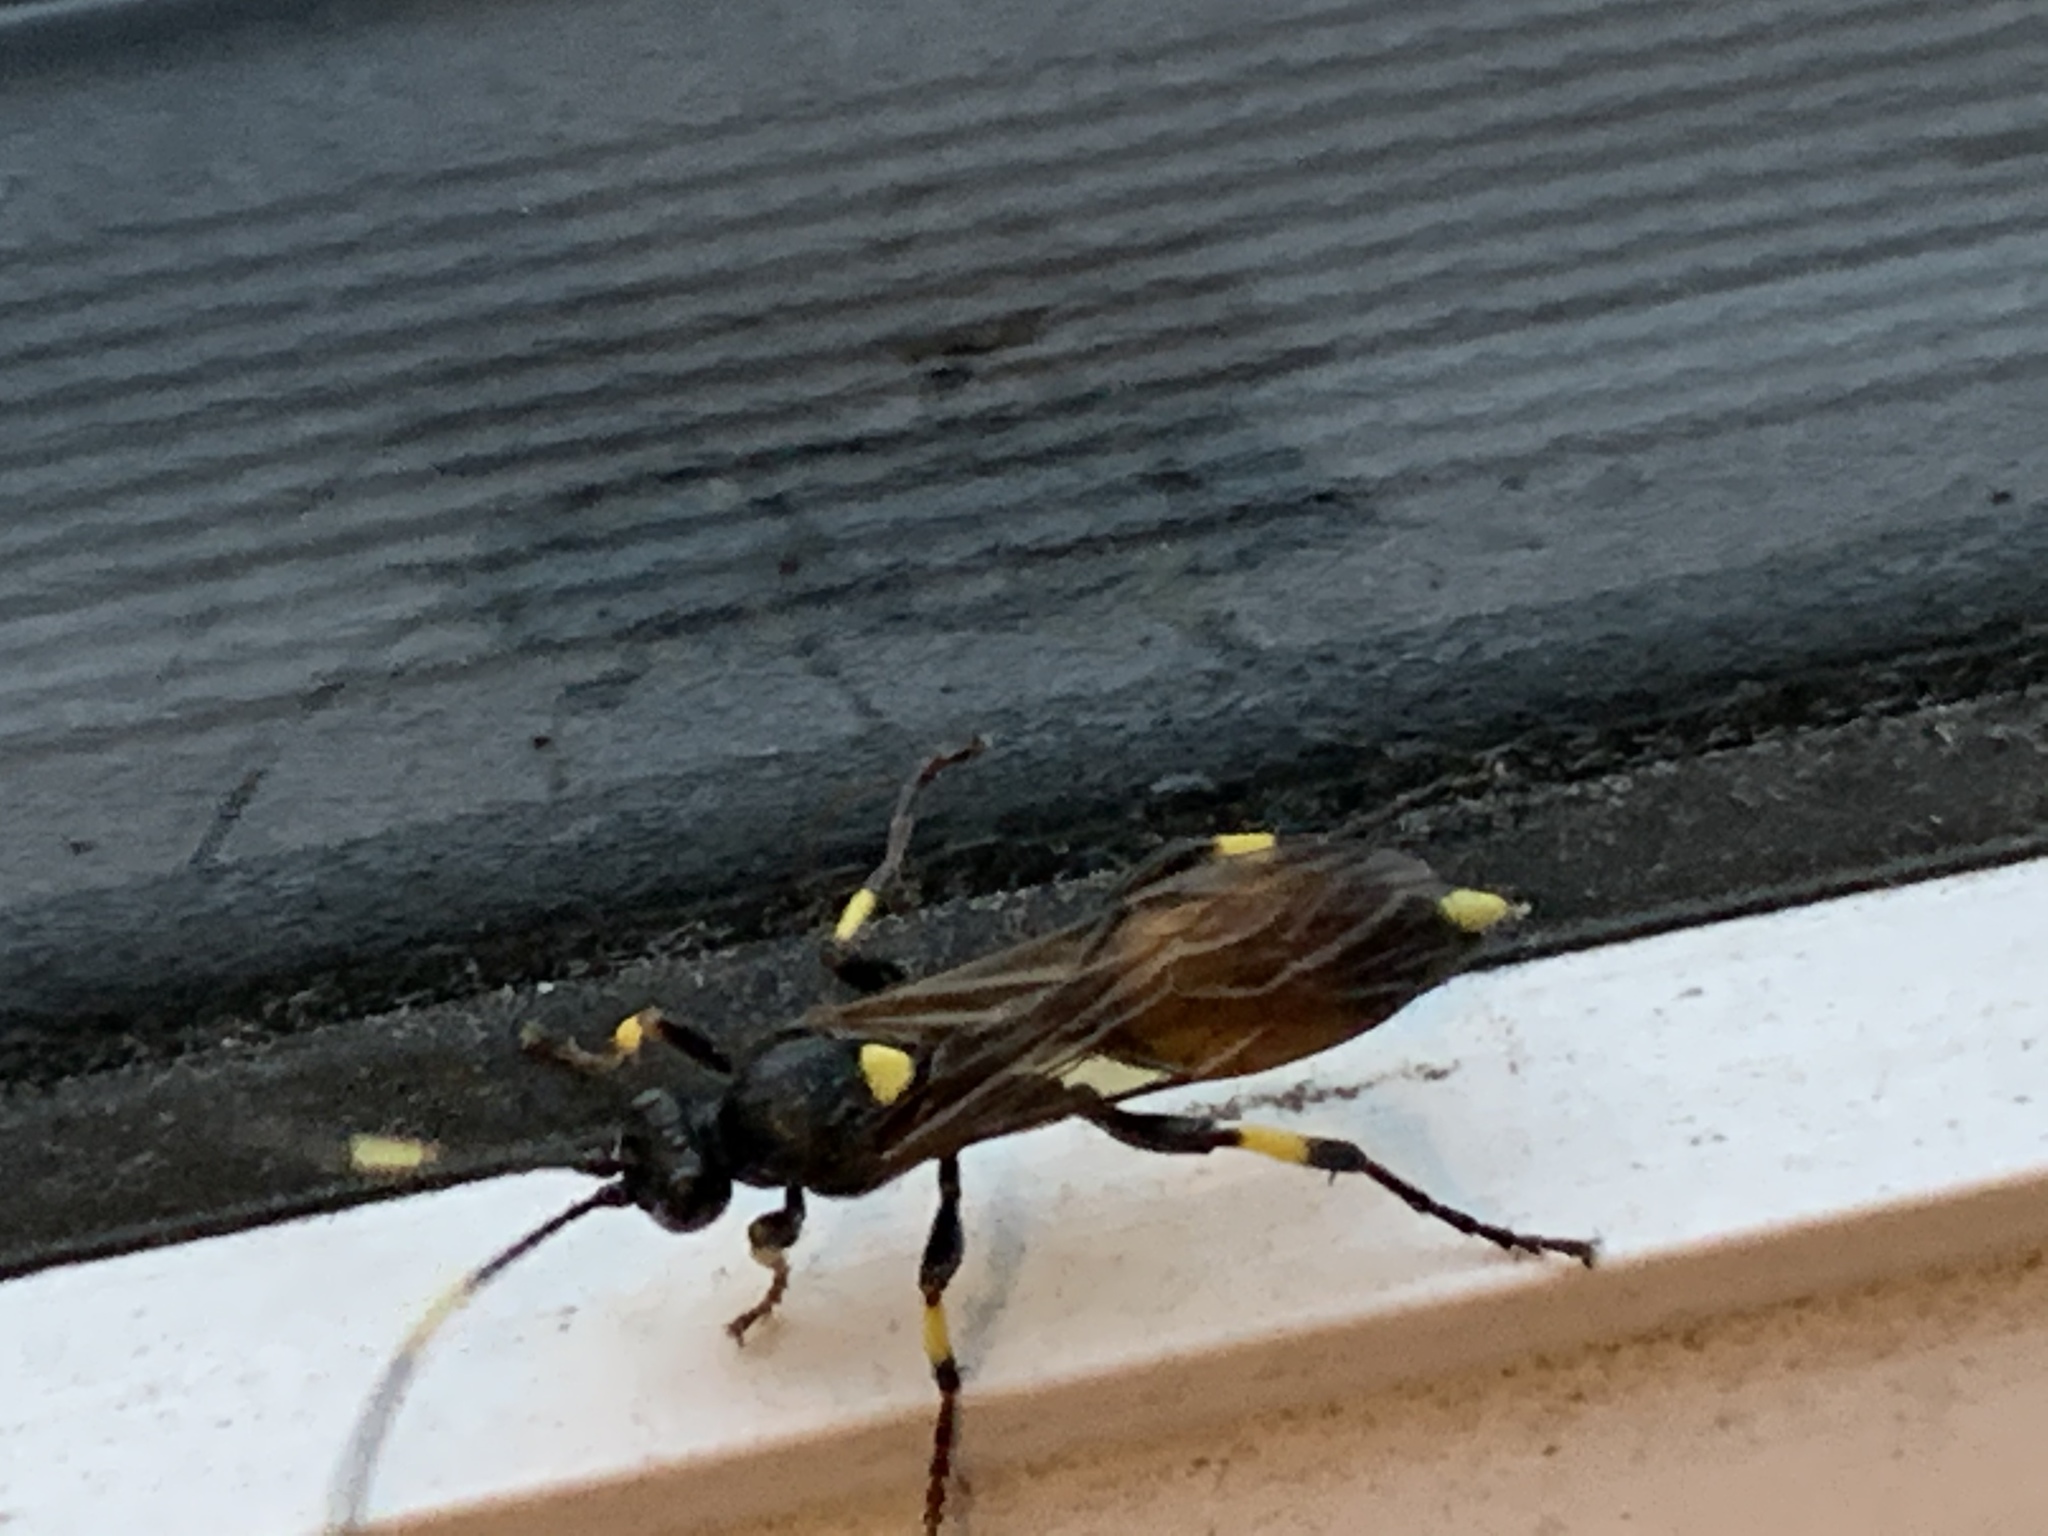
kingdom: Animalia
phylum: Arthropoda
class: Insecta
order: Hymenoptera
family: Ichneumonidae
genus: Ichneumon
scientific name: Ichneumon stramentor
